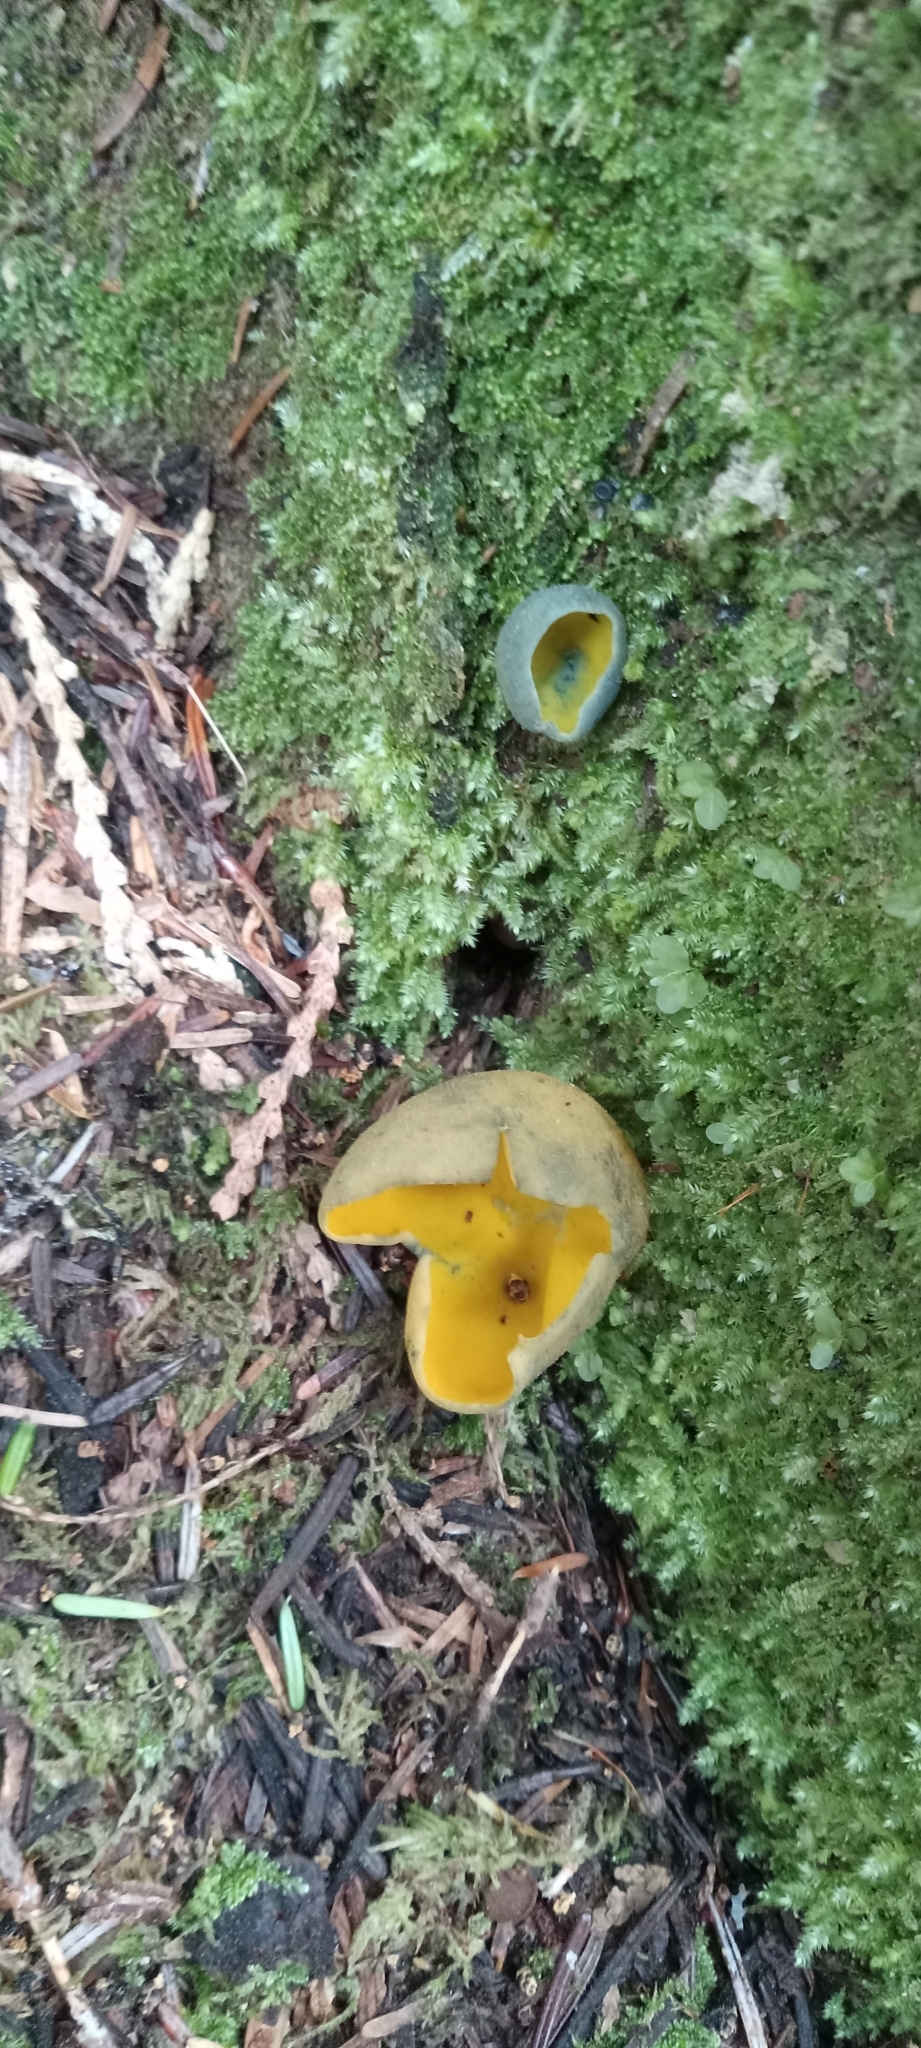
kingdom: Fungi
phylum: Ascomycota
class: Pezizomycetes
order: Pezizales
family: Caloscyphaceae
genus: Caloscypha
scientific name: Caloscypha fulgens
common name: Golden cup
